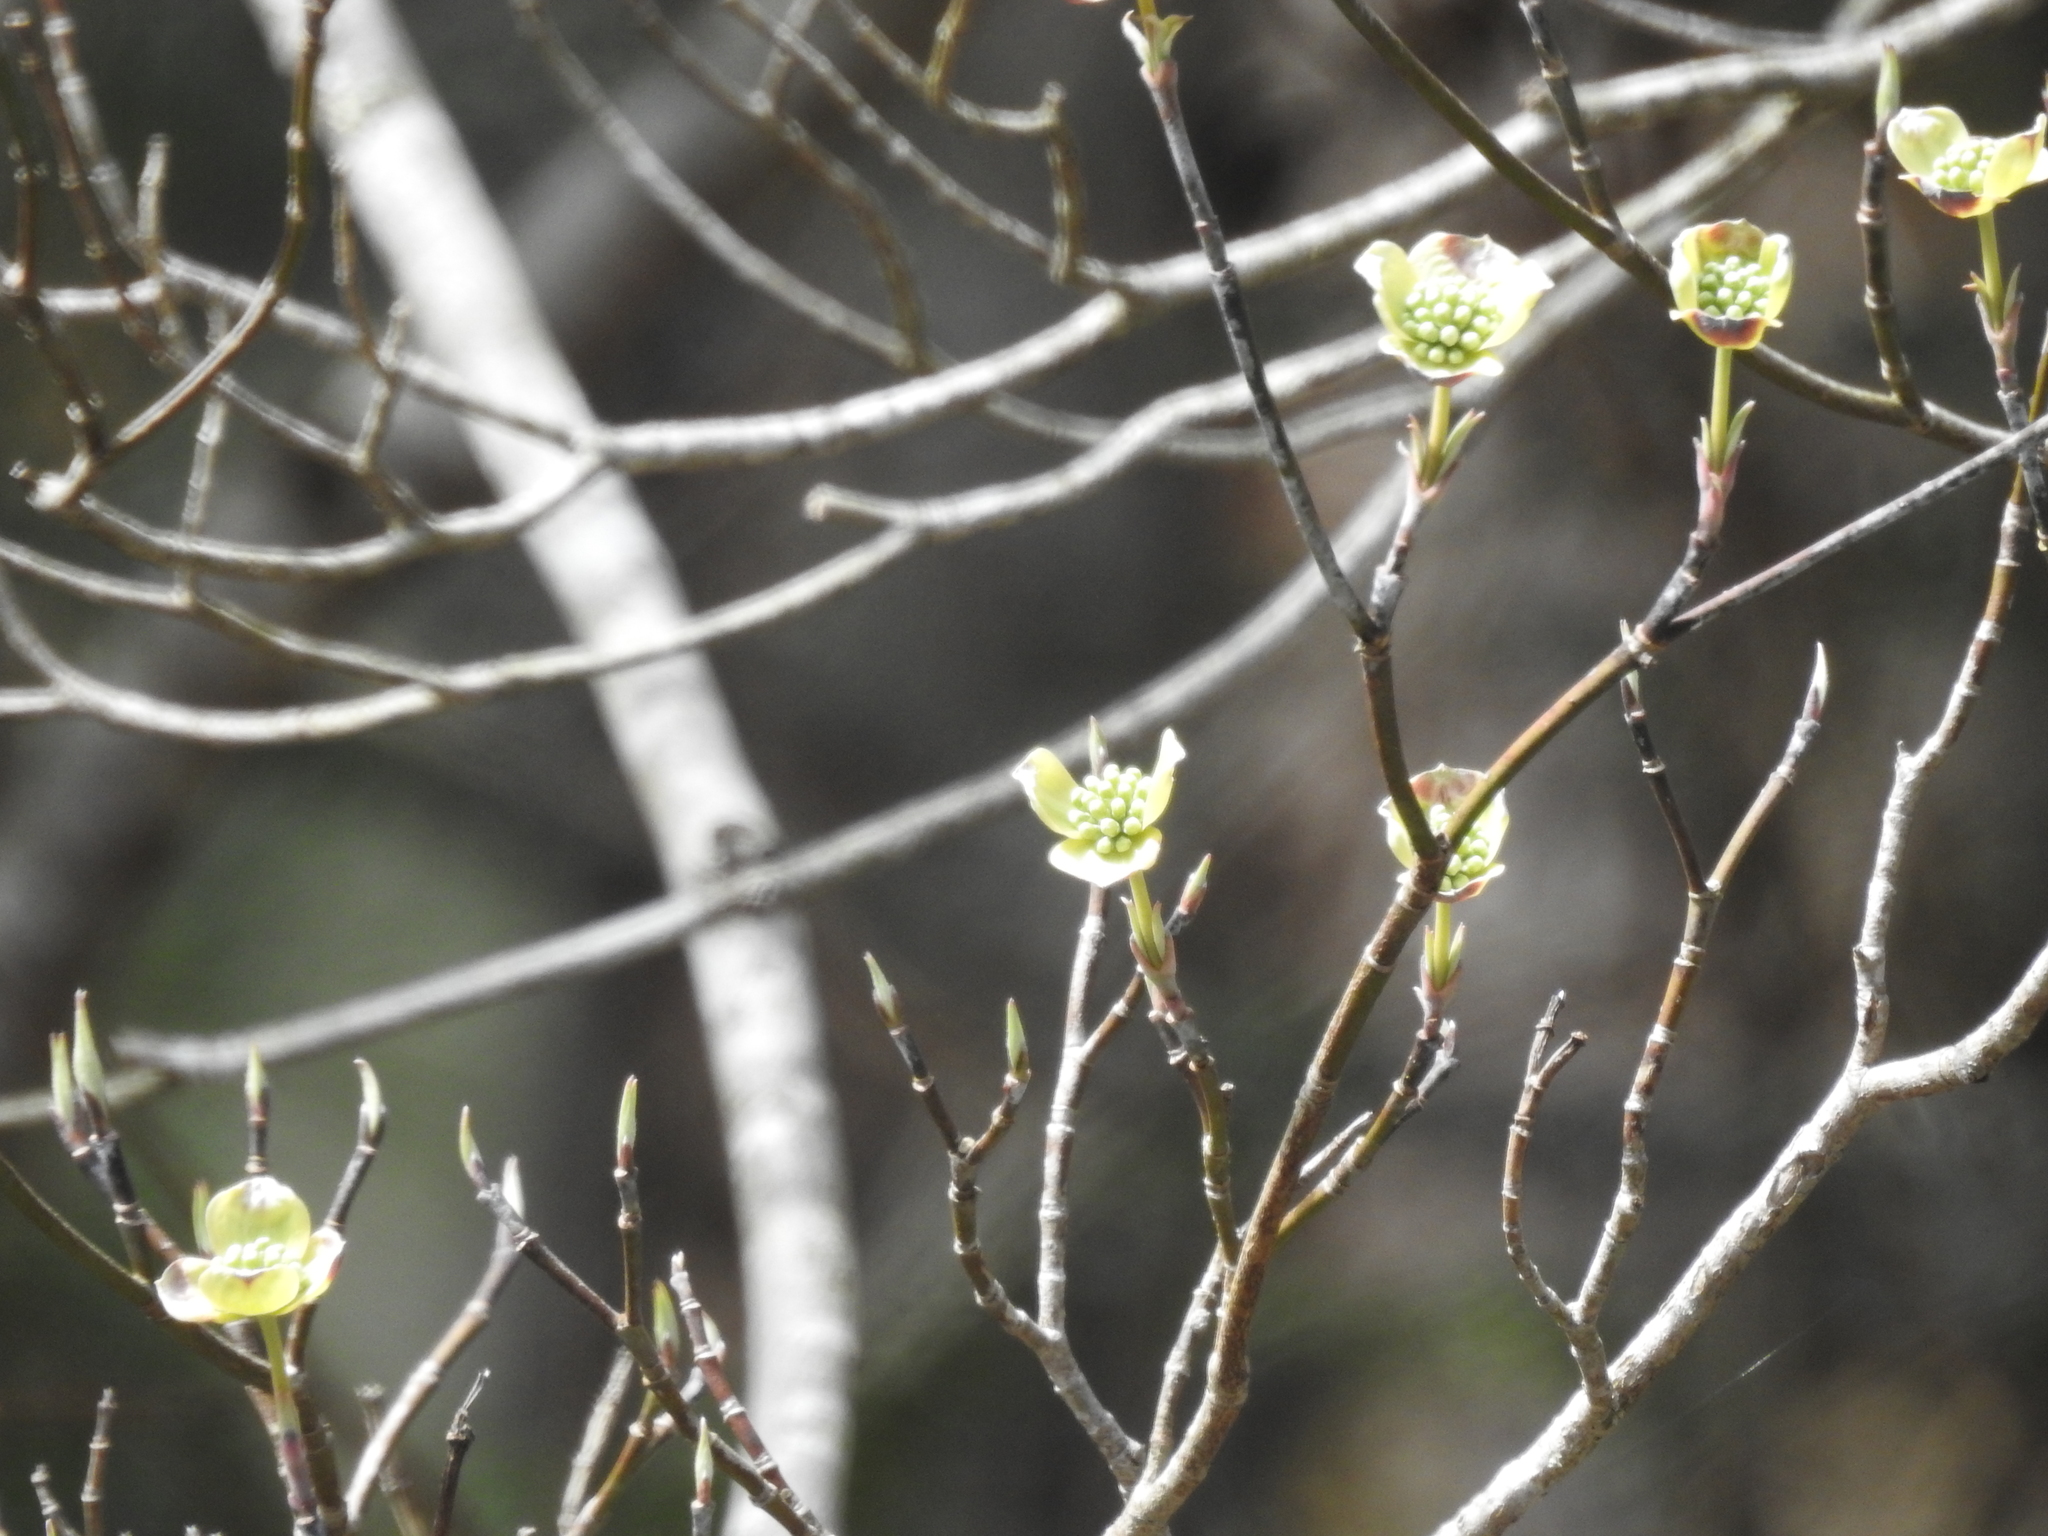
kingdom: Plantae
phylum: Tracheophyta
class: Magnoliopsida
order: Cornales
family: Cornaceae
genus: Cornus
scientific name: Cornus florida
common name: Flowering dogwood
